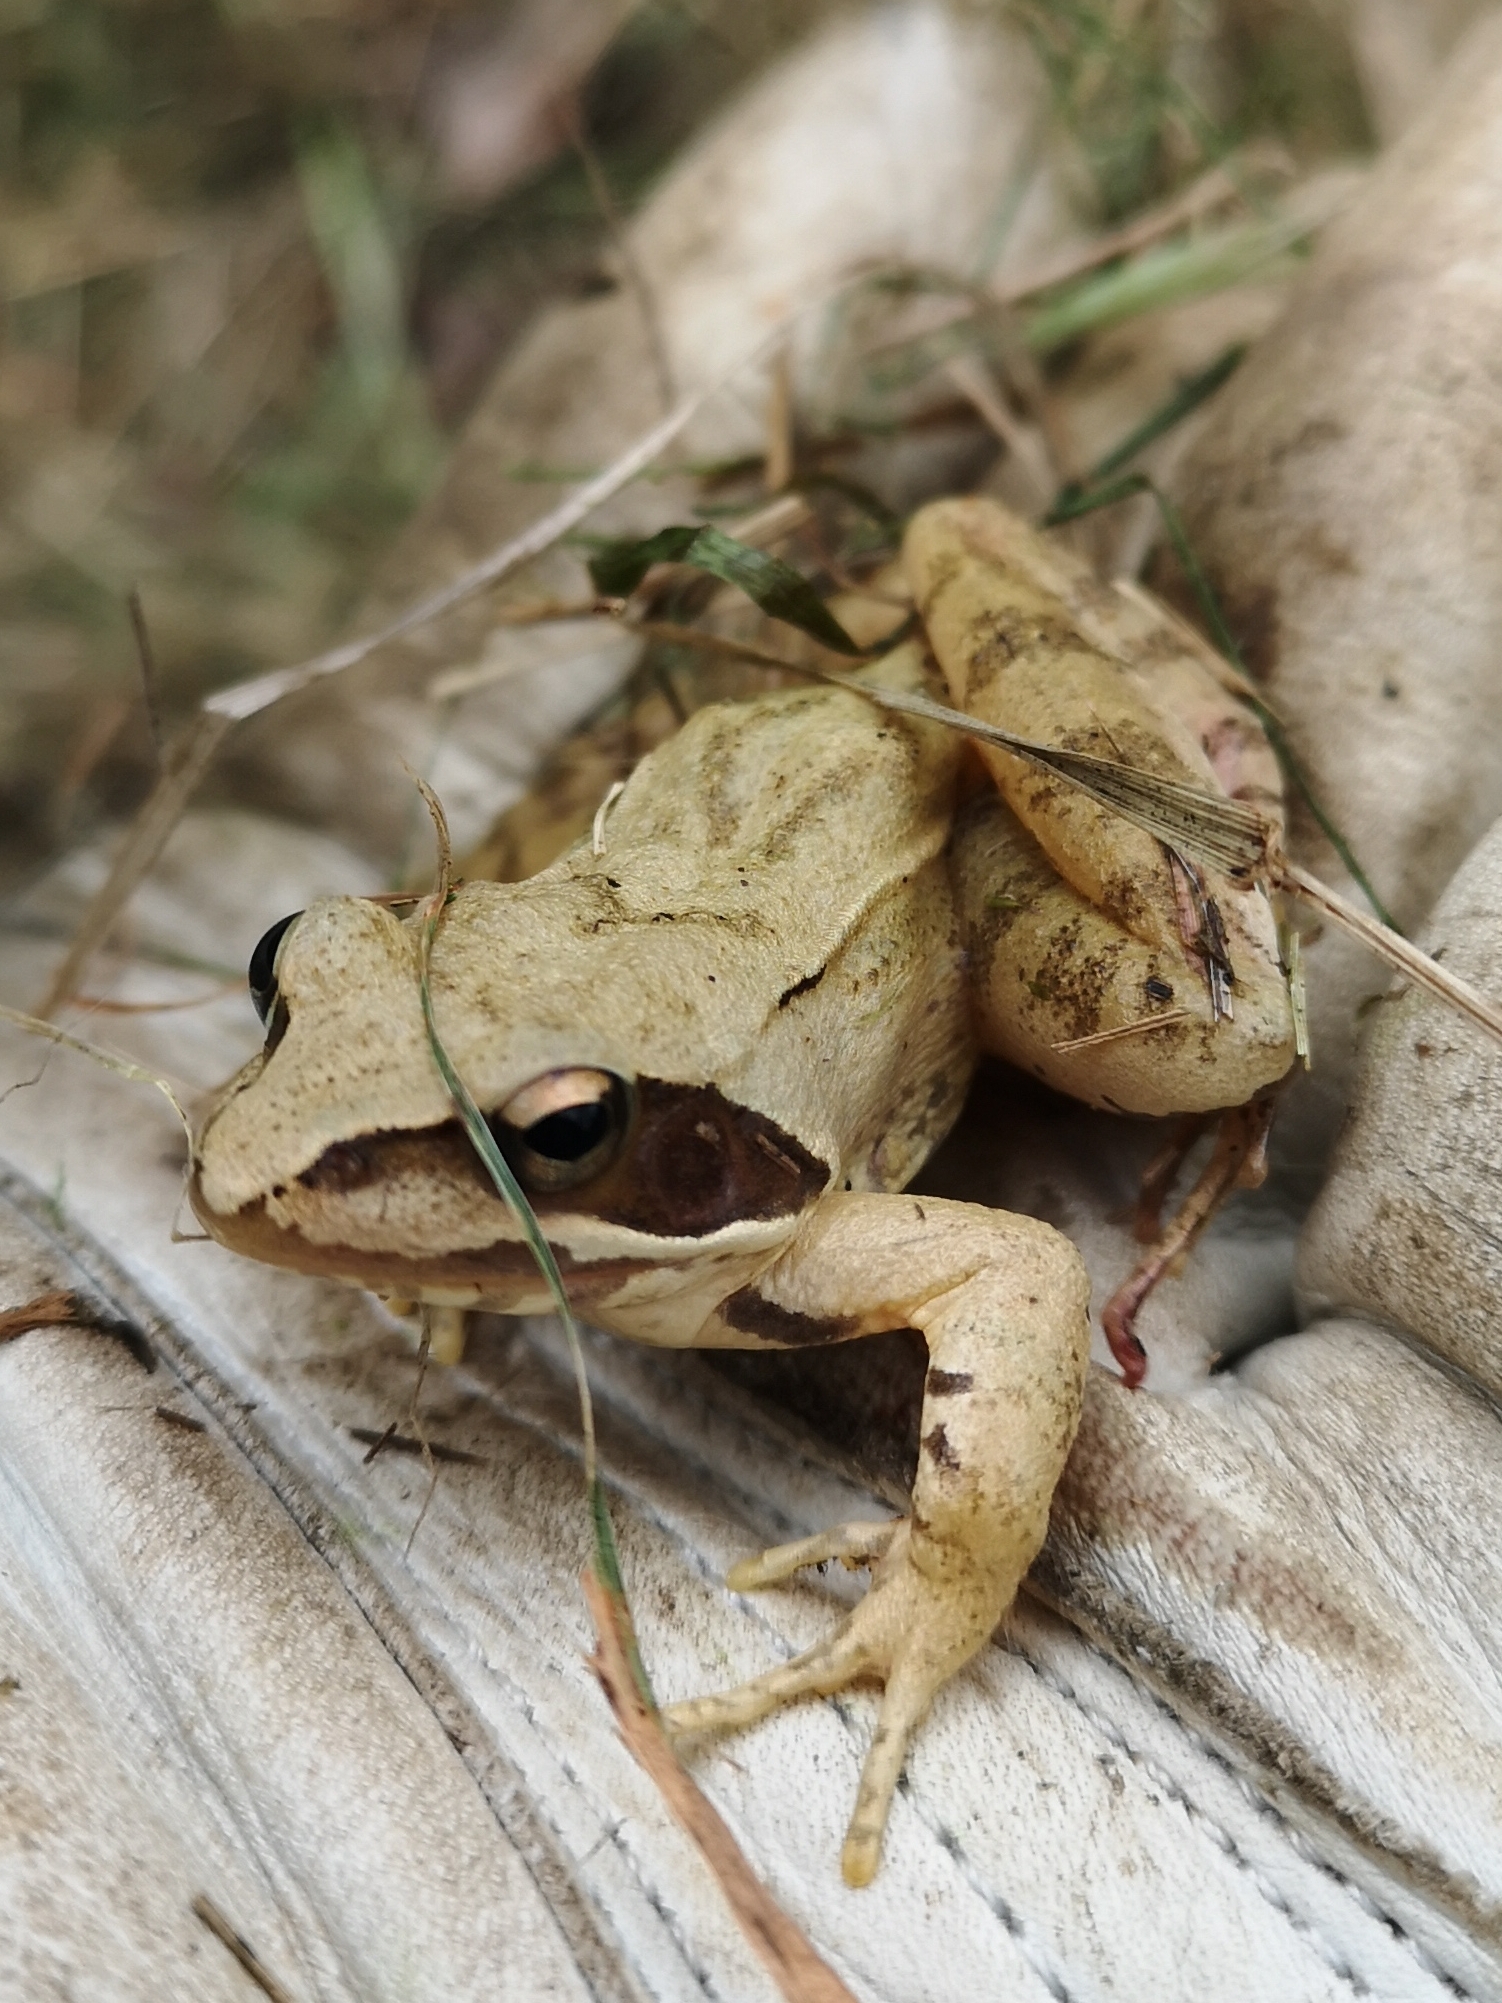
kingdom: Animalia
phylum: Chordata
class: Amphibia
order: Anura
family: Ranidae
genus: Rana
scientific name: Rana dalmatina
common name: Agile frog
